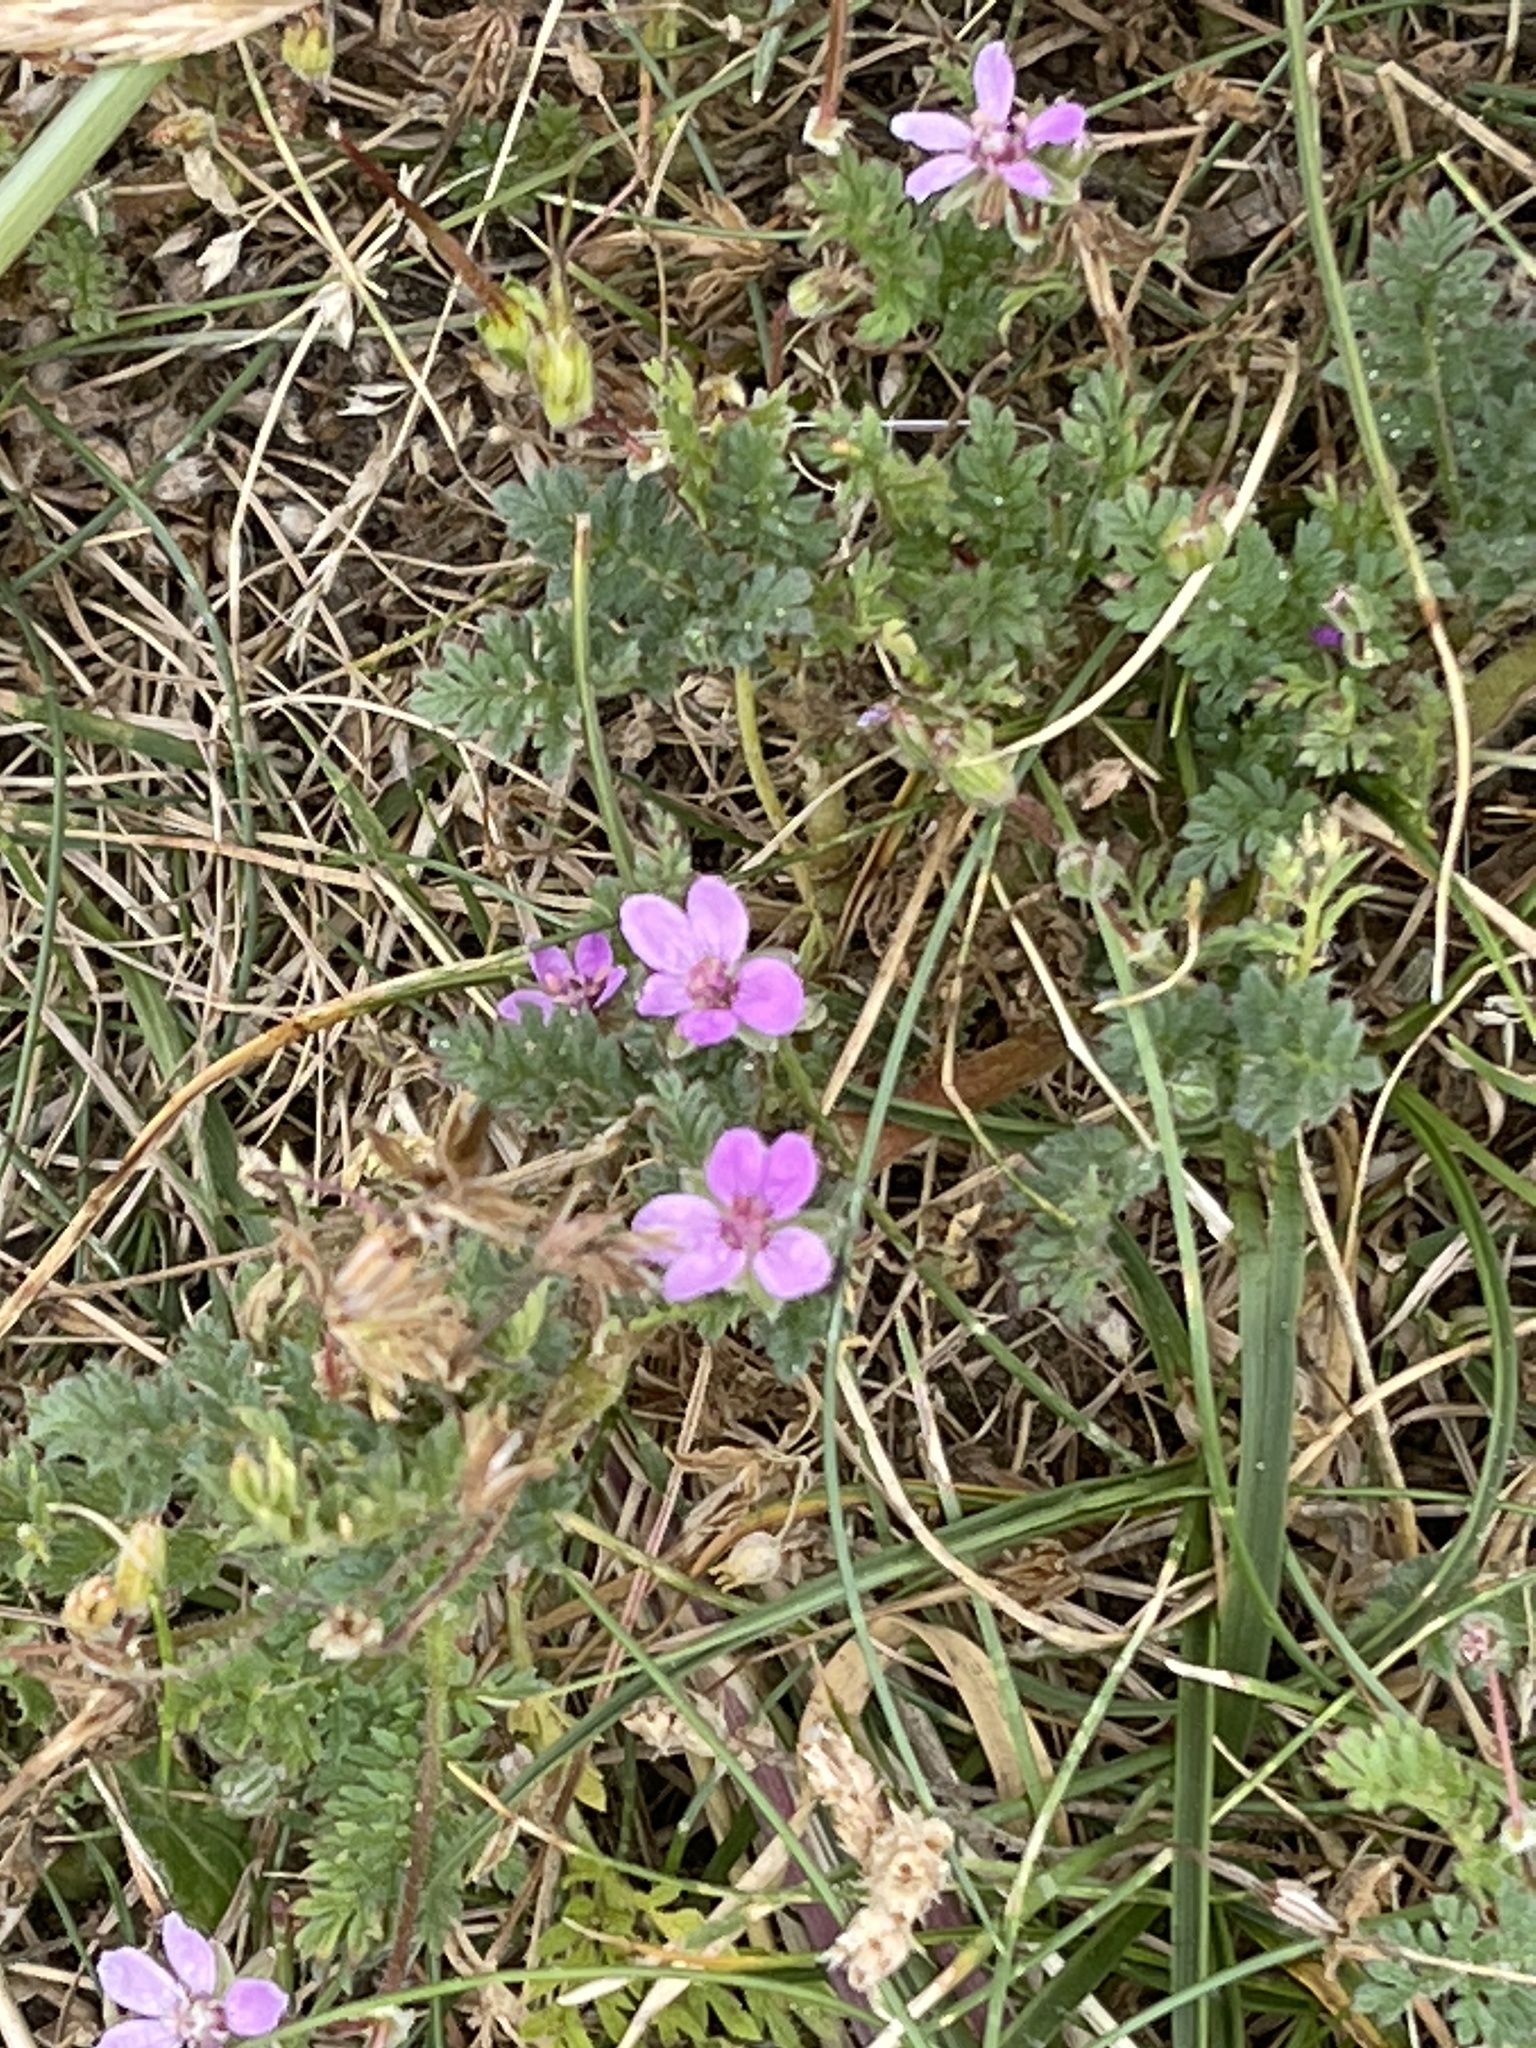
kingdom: Plantae
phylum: Tracheophyta
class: Magnoliopsida
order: Geraniales
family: Geraniaceae
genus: Erodium
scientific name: Erodium cicutarium
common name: Common stork's-bill
